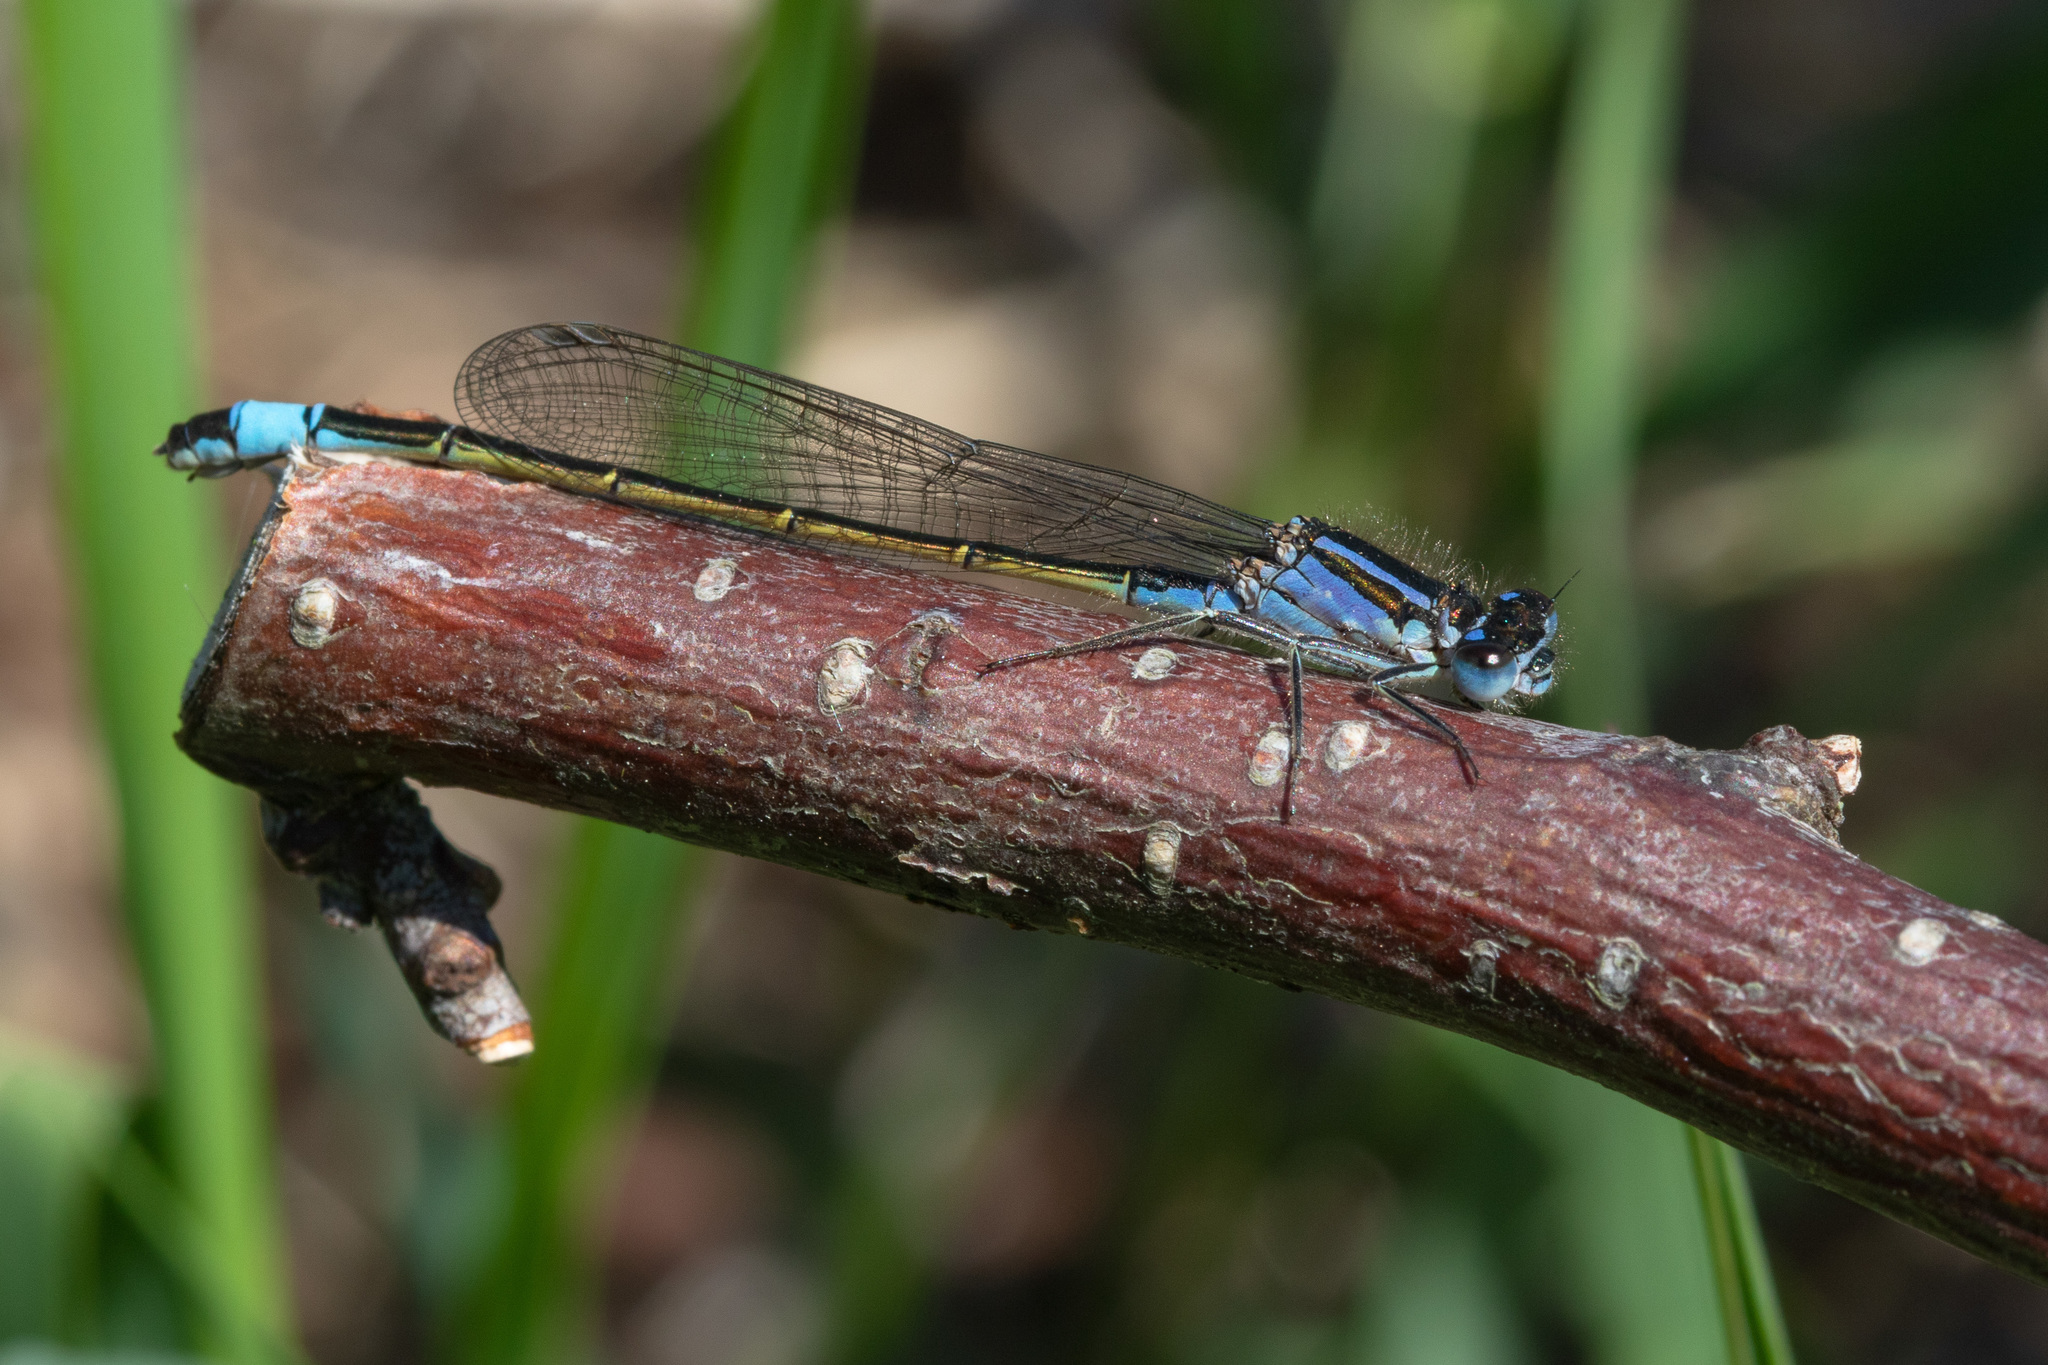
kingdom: Animalia
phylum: Arthropoda
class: Insecta
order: Odonata
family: Coenagrionidae
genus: Ischnura
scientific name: Ischnura elegans
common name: Blue-tailed damselfly
